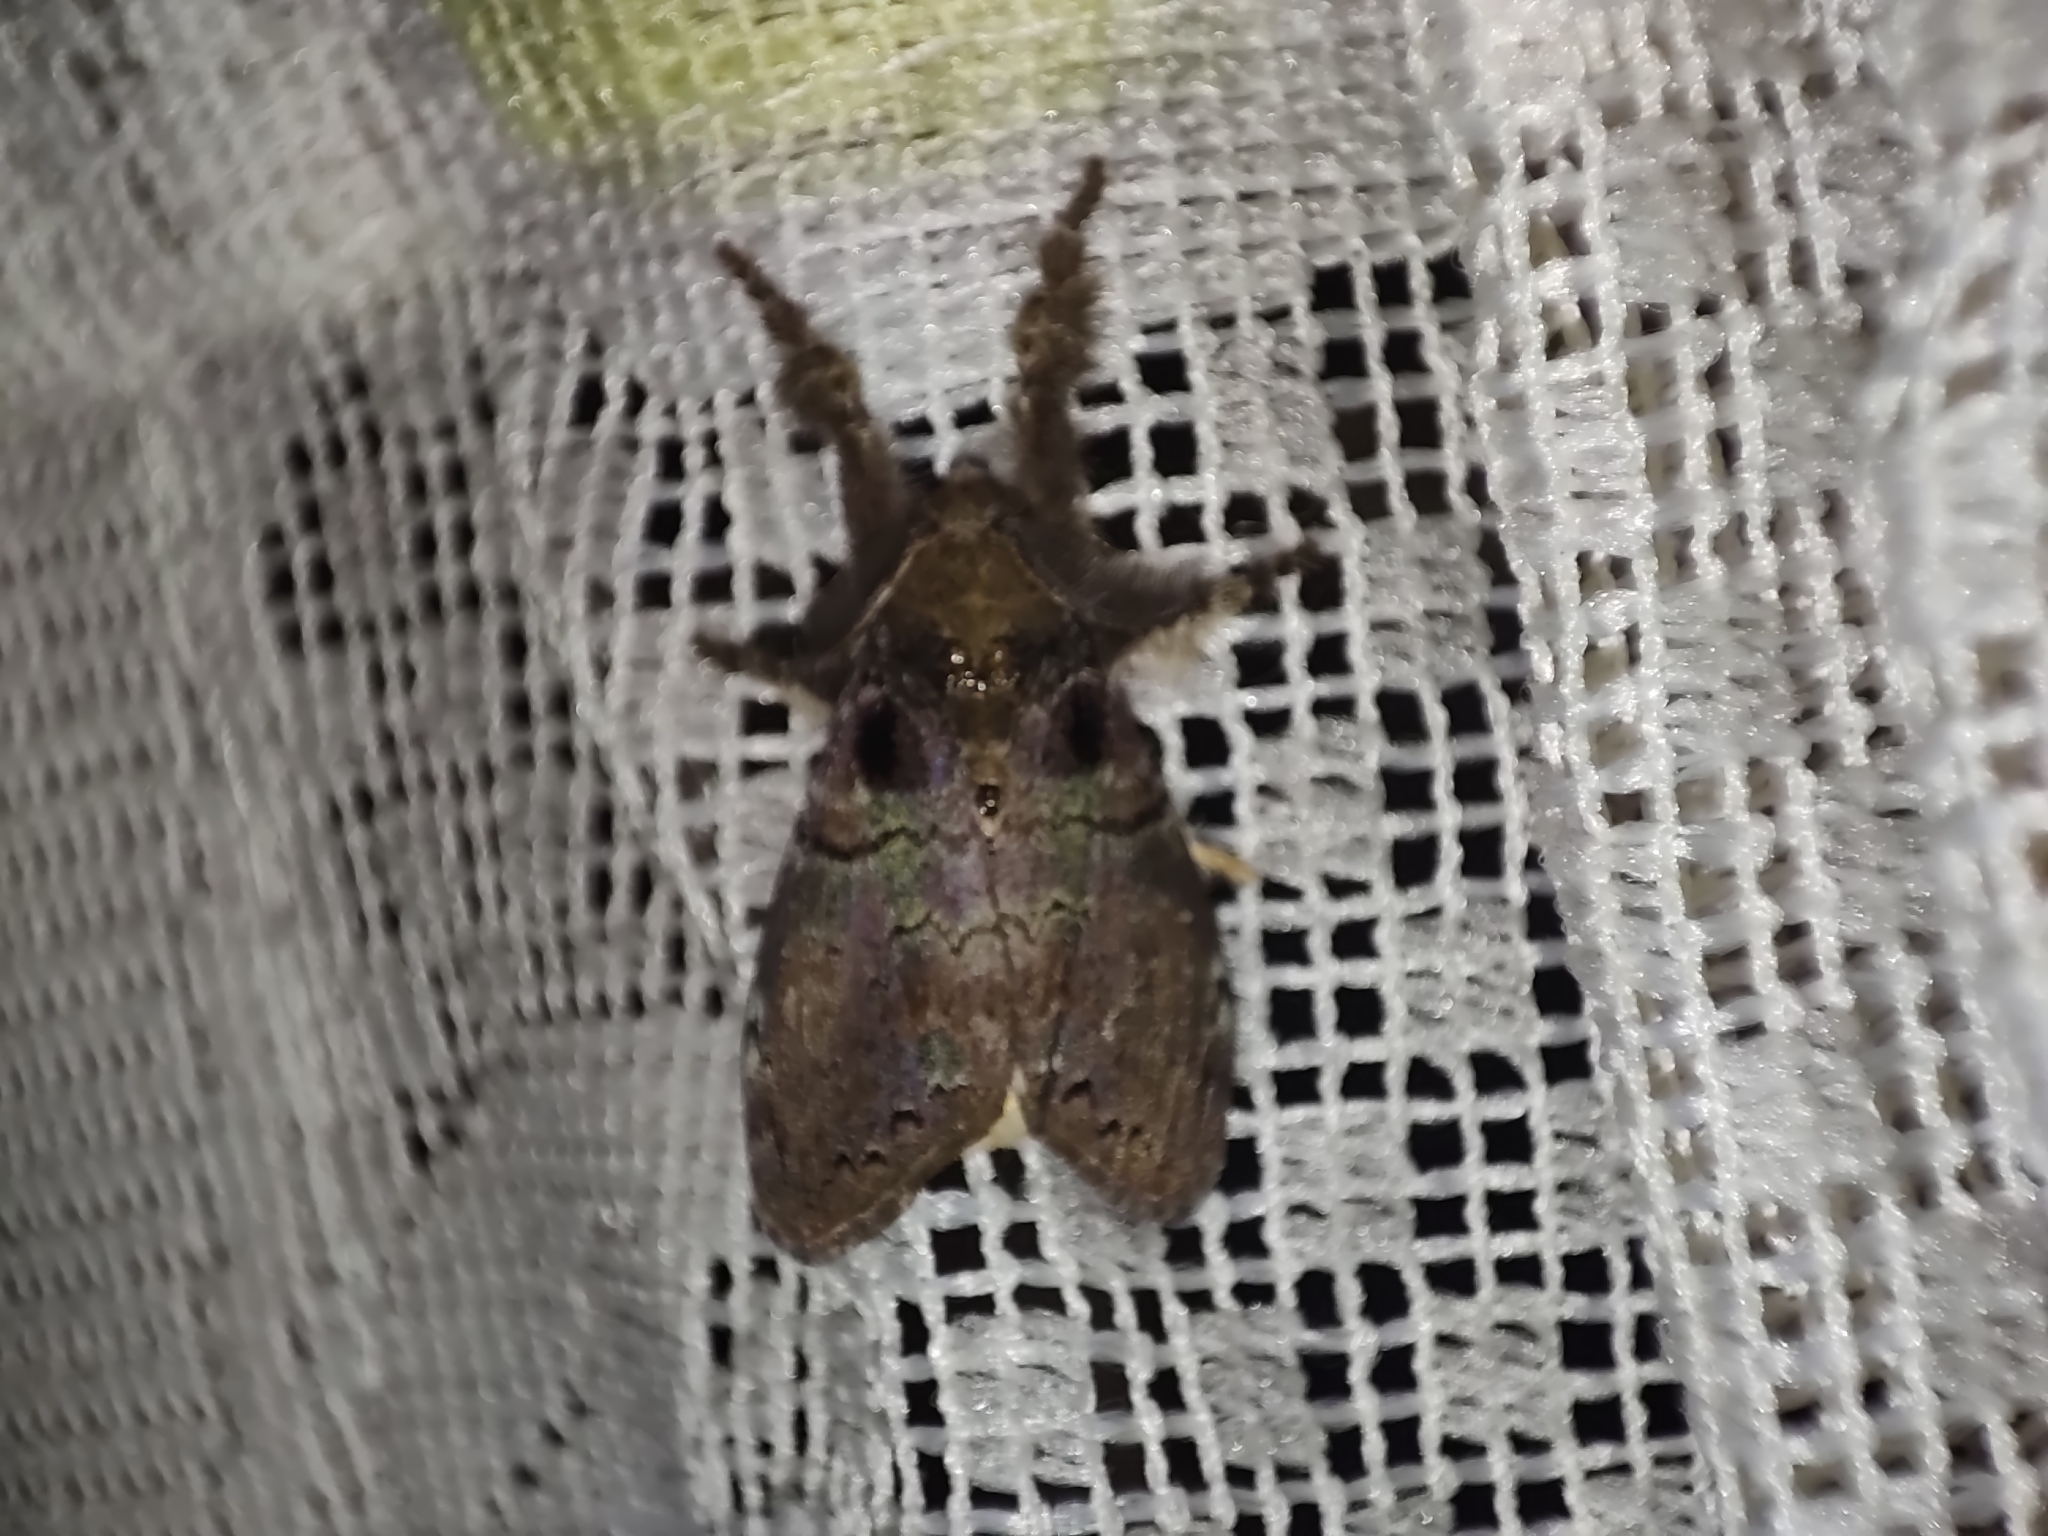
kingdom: Animalia
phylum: Arthropoda
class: Insecta
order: Lepidoptera
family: Erebidae
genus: Olene
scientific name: Olene mendosa
